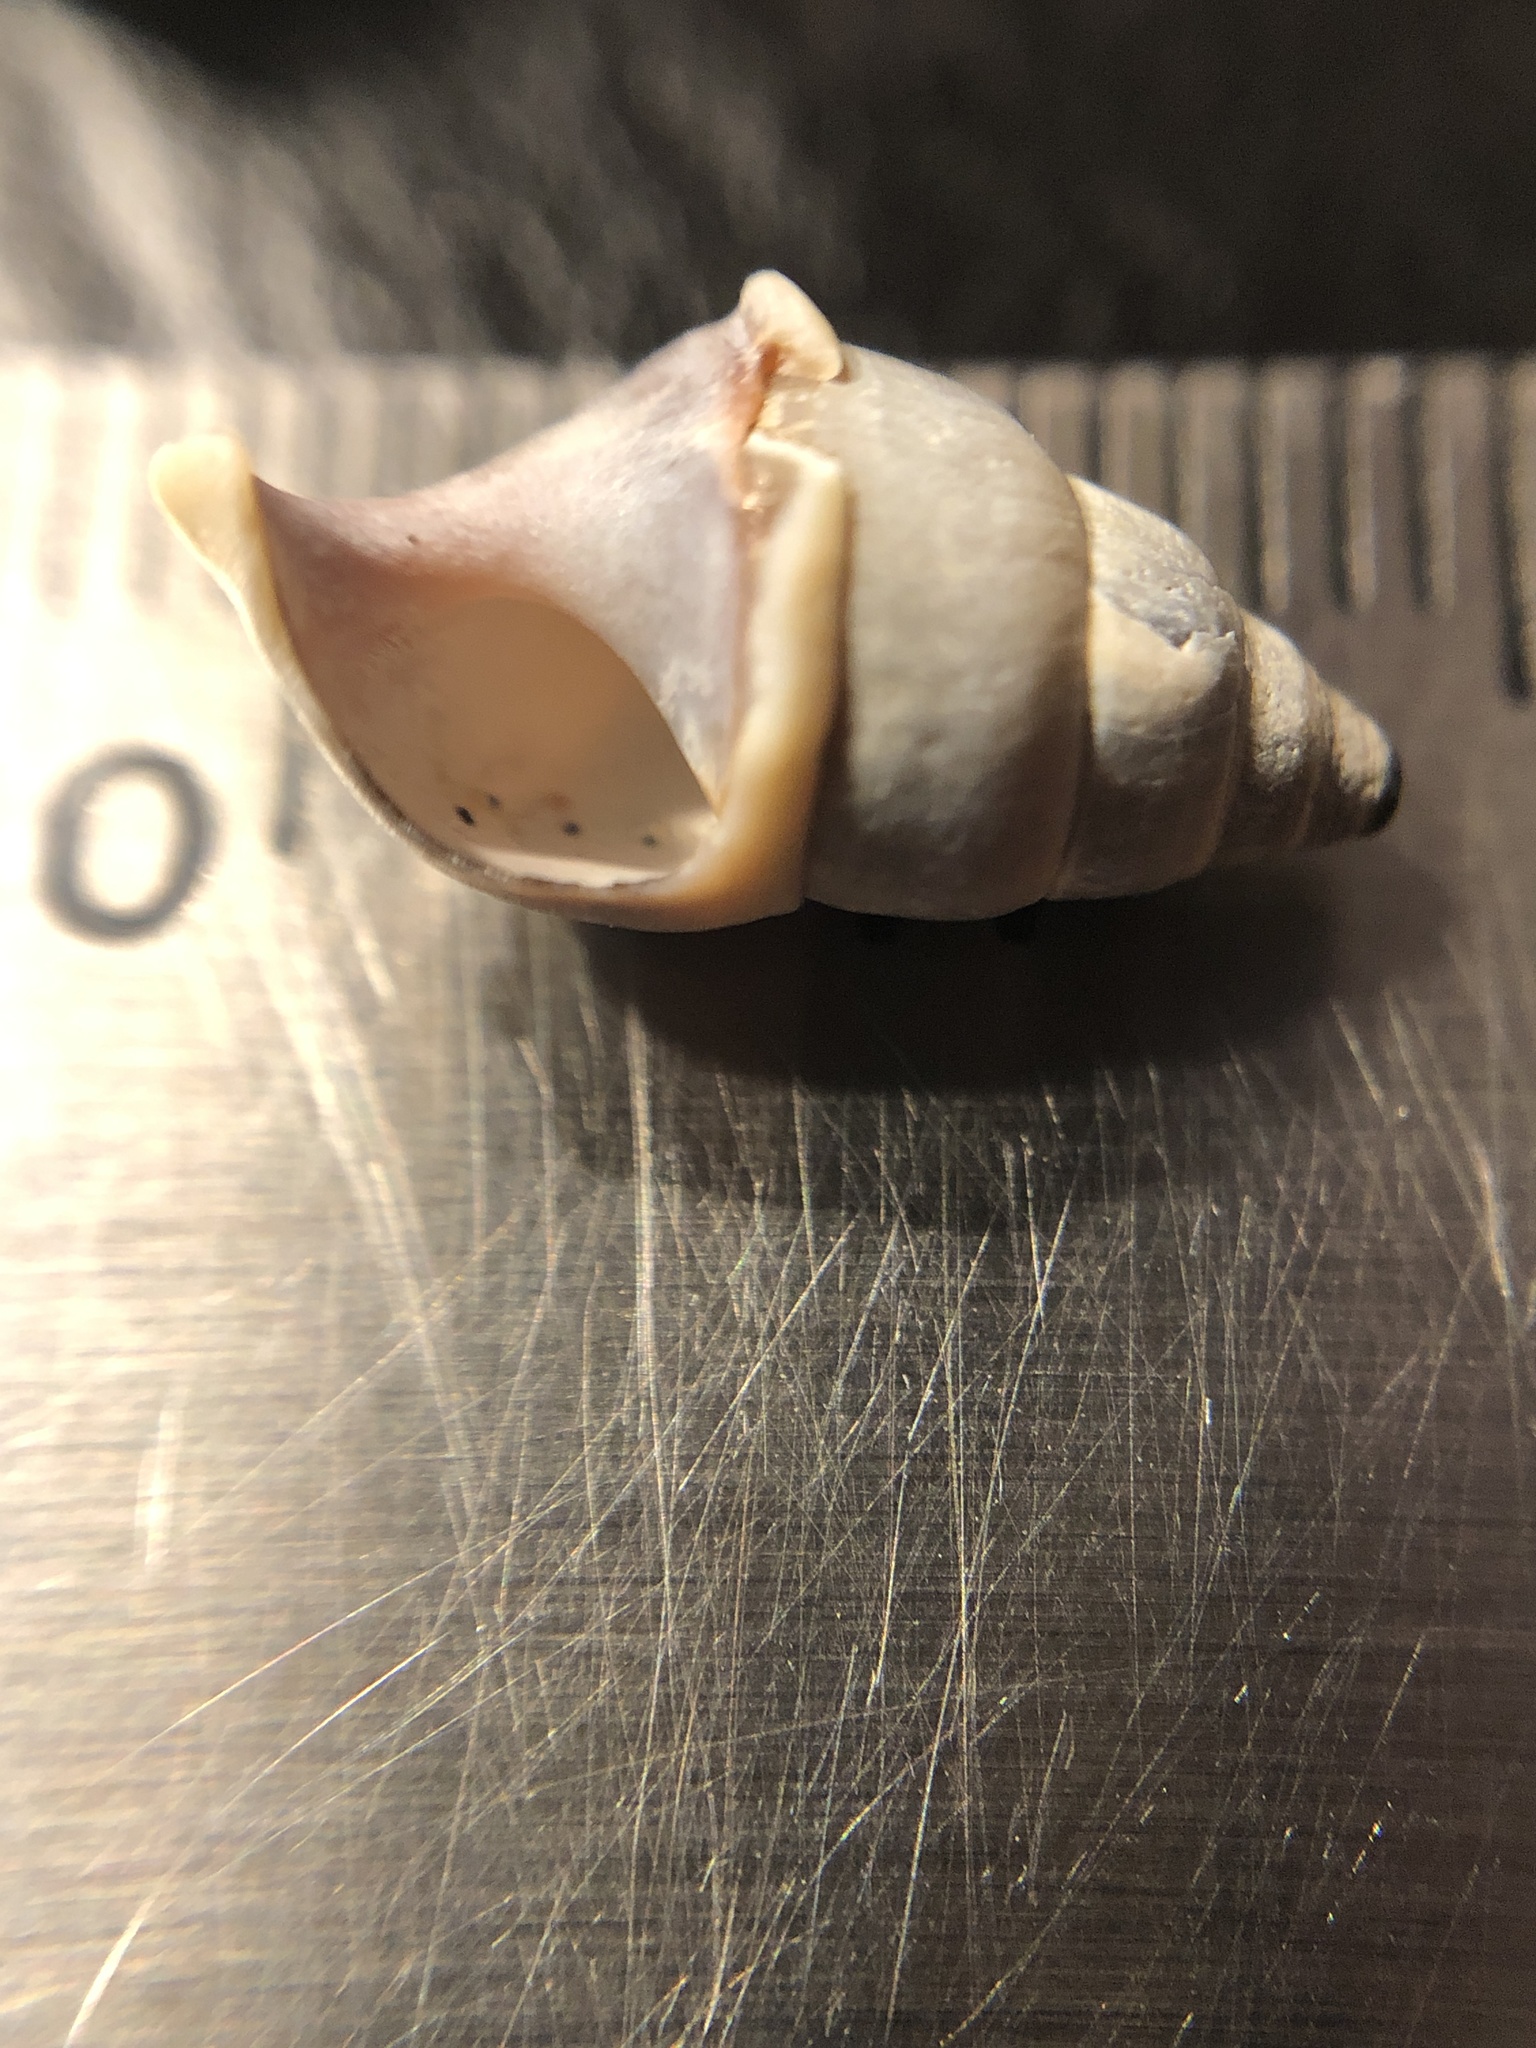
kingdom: Animalia
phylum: Mollusca
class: Gastropoda
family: Pleuroceridae
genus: Elimia
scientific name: Elimia livescens
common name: Liver elimia
